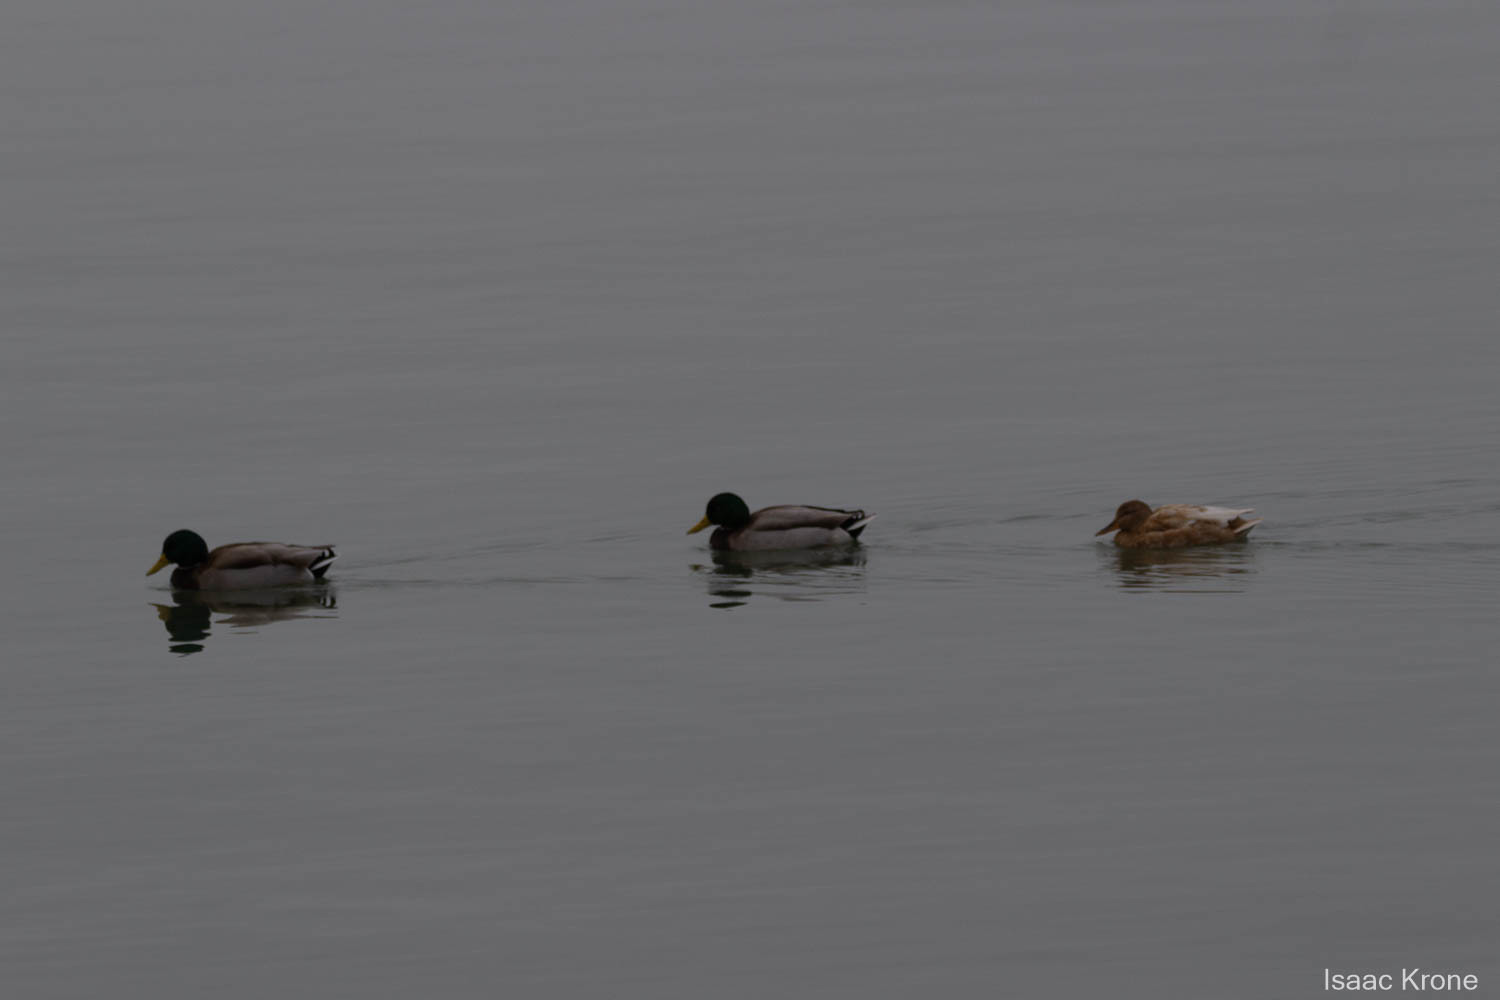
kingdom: Animalia
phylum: Chordata
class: Aves
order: Anseriformes
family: Anatidae
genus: Anas
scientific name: Anas platyrhynchos
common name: Mallard
